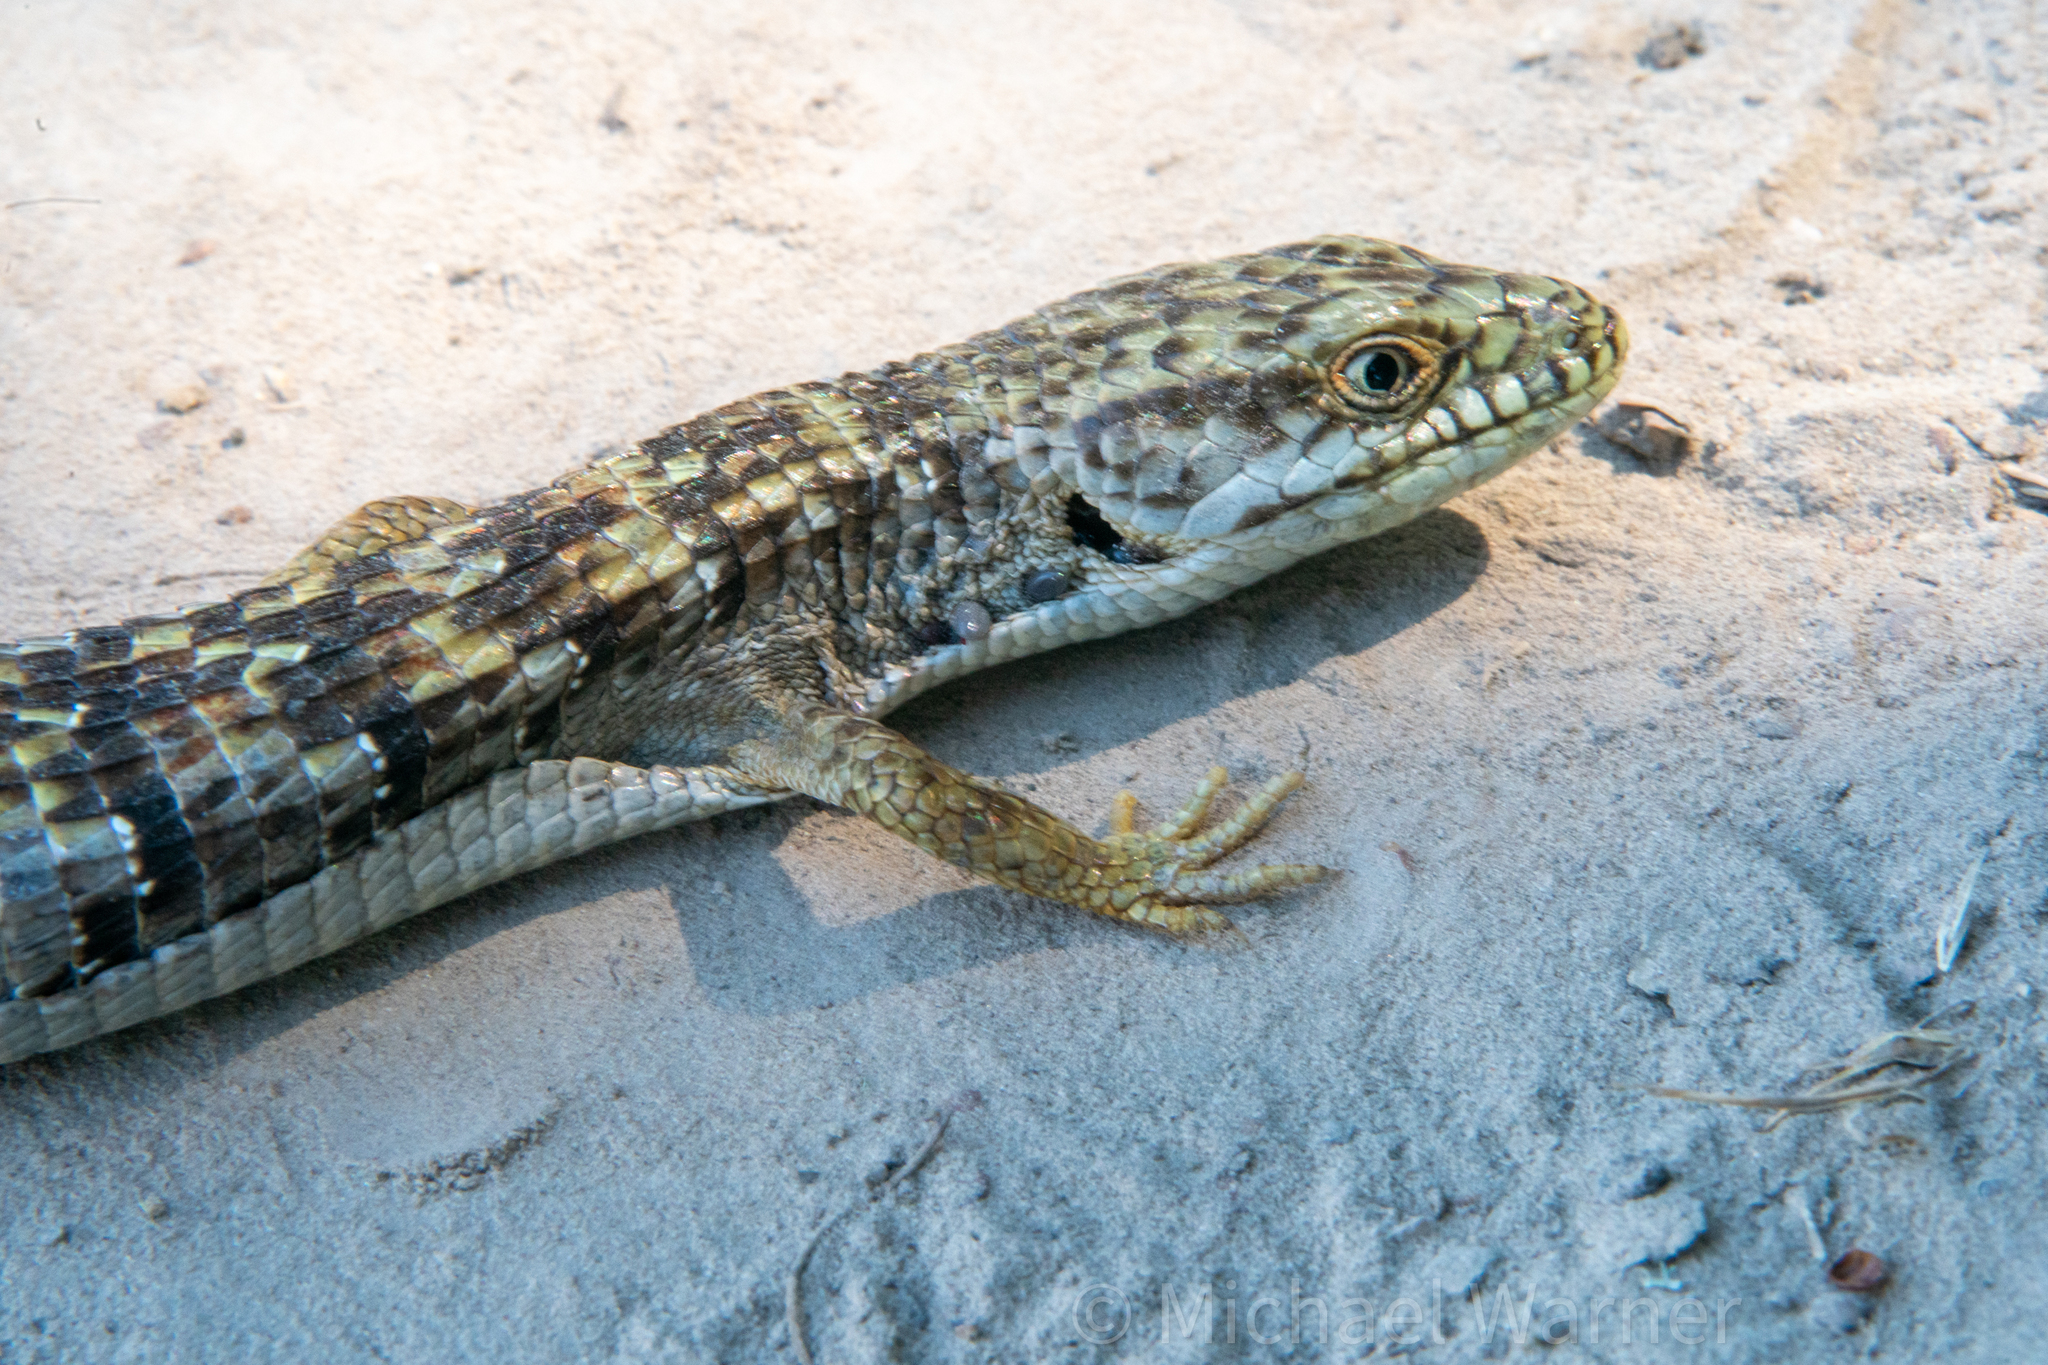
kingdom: Animalia
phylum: Chordata
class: Squamata
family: Anguidae
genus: Elgaria
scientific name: Elgaria multicarinata
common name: Southern alligator lizard
